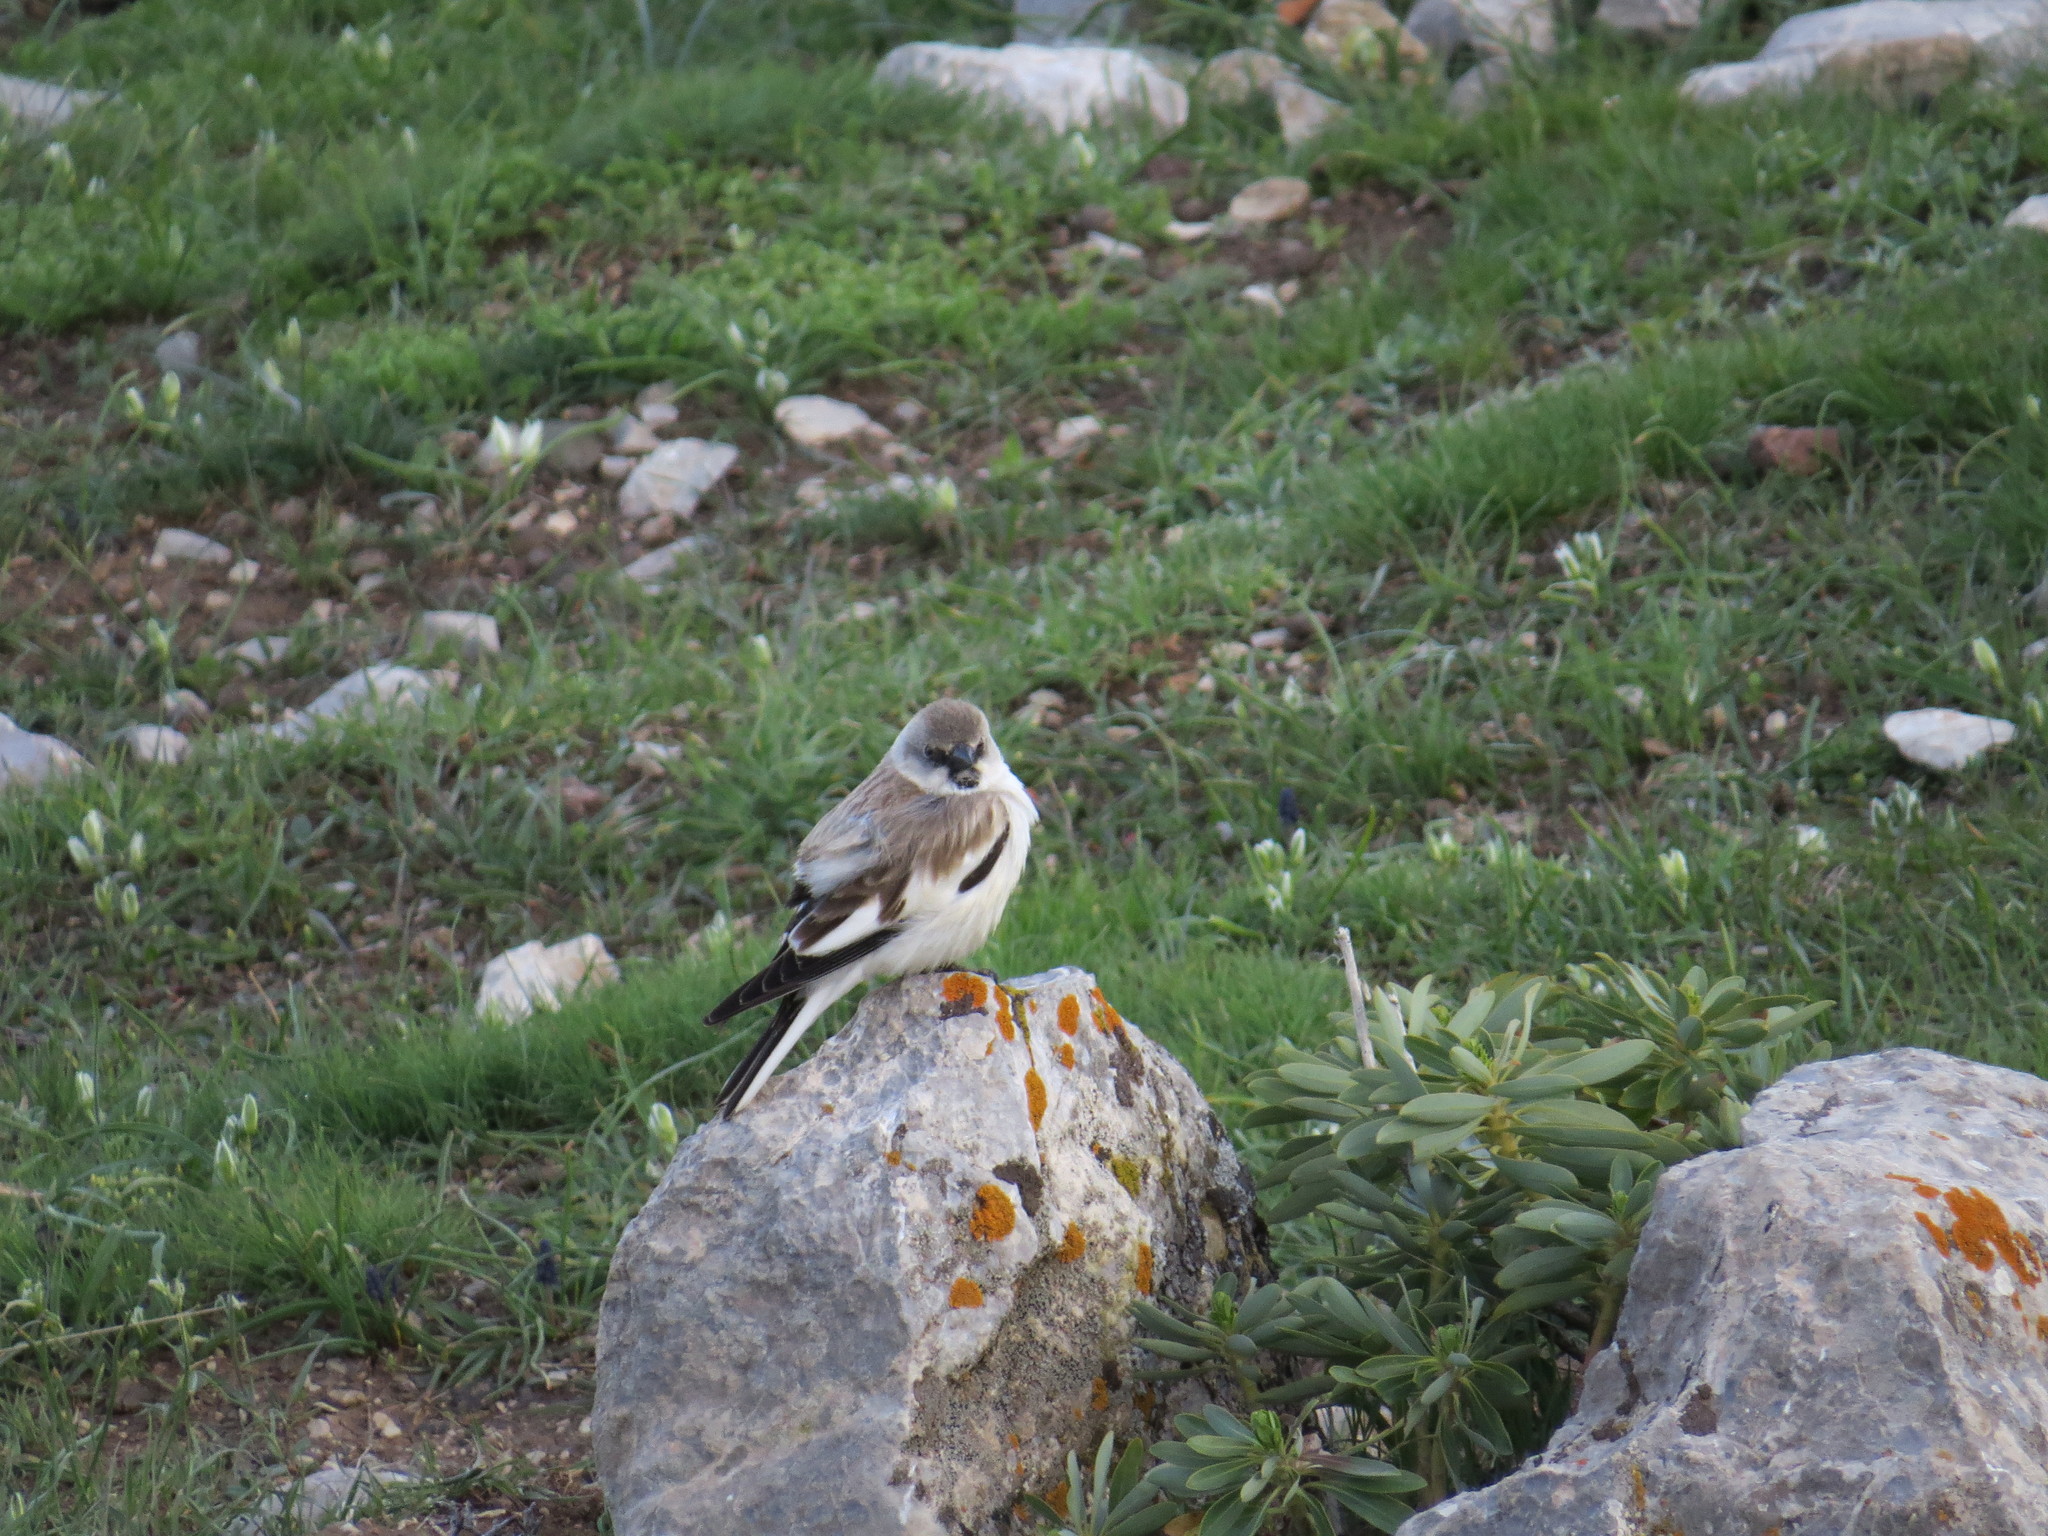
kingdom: Animalia
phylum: Chordata
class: Aves
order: Passeriformes
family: Passeridae
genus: Montifringilla
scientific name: Montifringilla nivalis
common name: White-winged snowfinch
